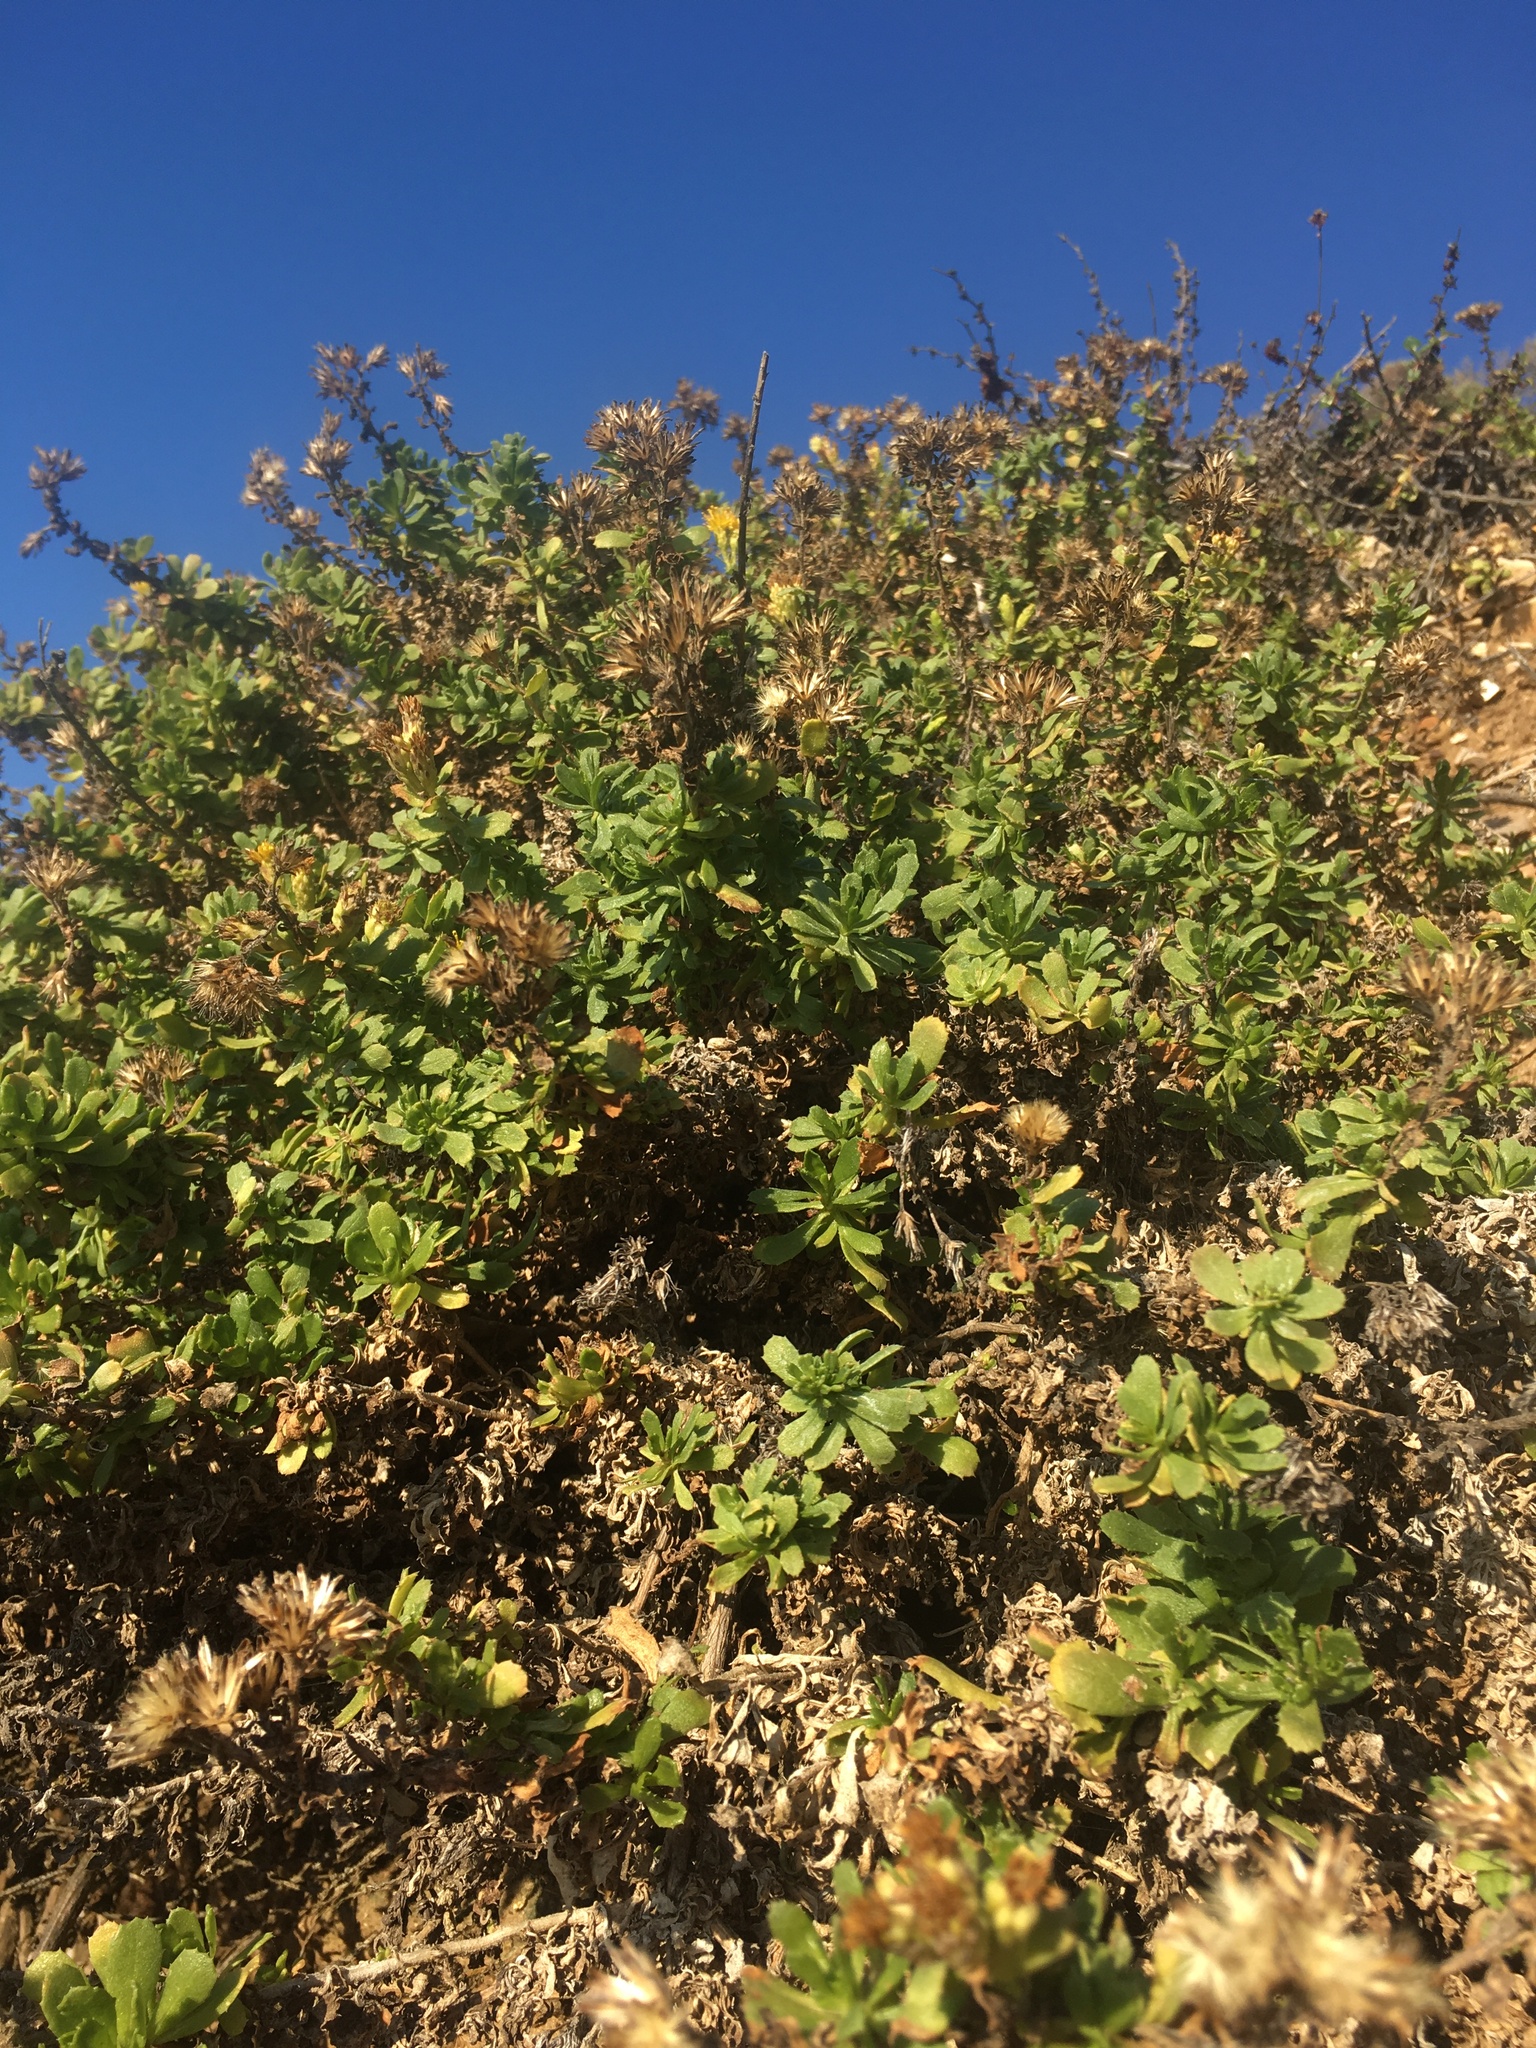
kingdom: Plantae
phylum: Tracheophyta
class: Magnoliopsida
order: Asterales
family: Asteraceae
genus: Isocoma
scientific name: Isocoma menziesii
